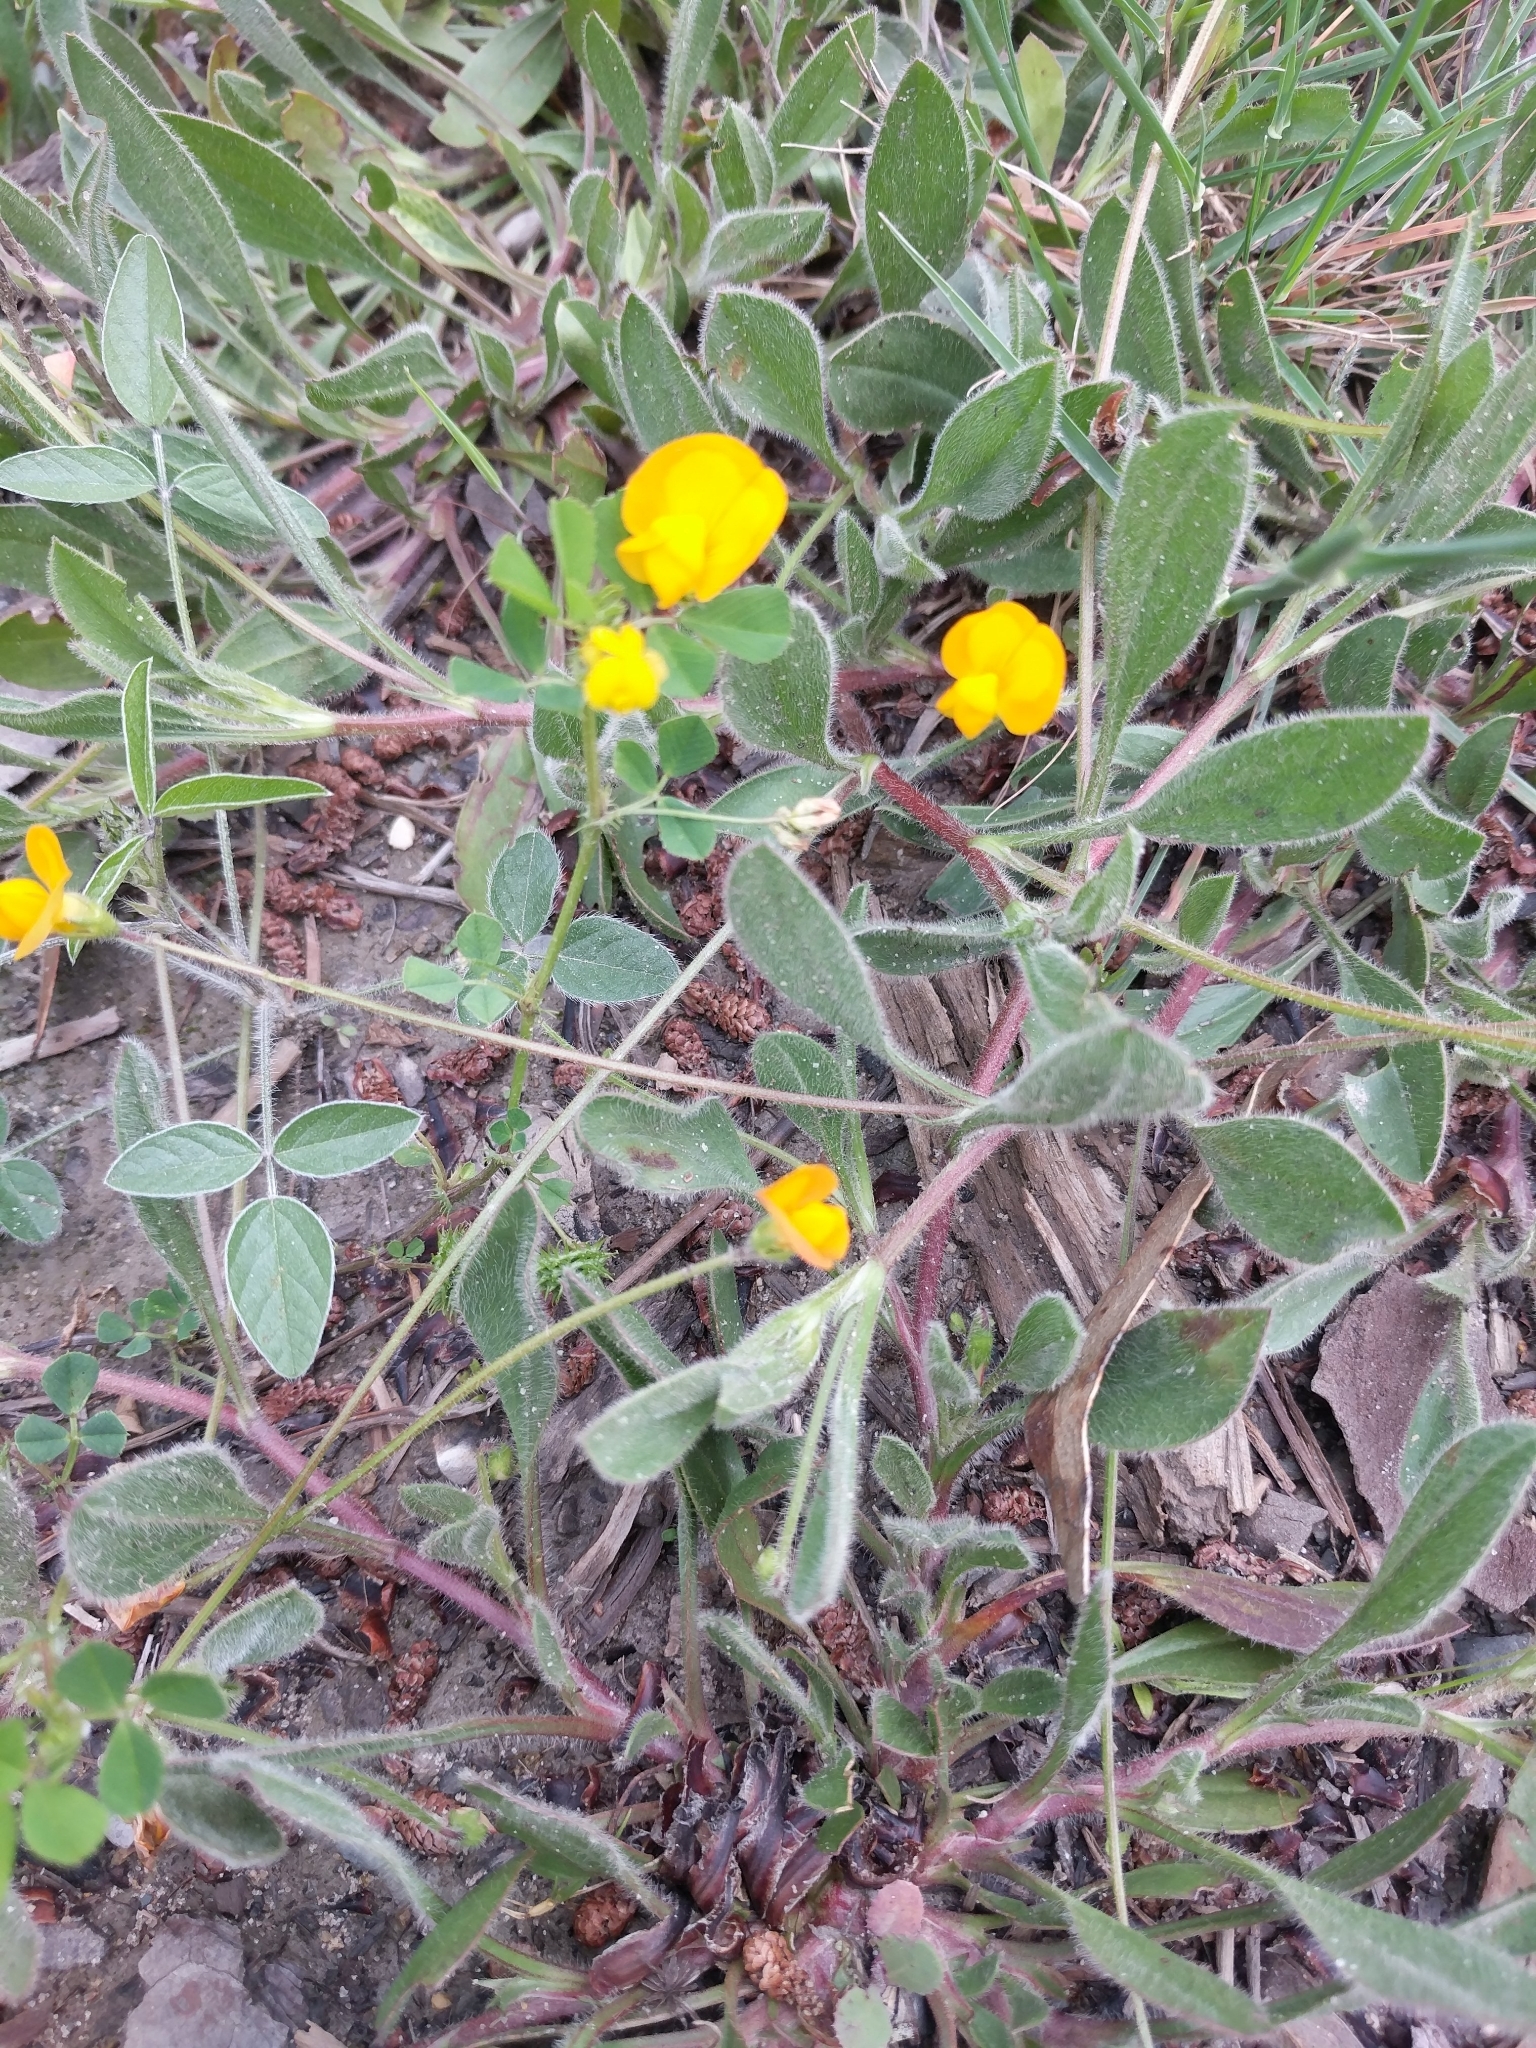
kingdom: Plantae
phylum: Tracheophyta
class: Magnoliopsida
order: Fabales
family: Fabaceae
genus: Scorpiurus
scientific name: Scorpiurus vermiculatus
